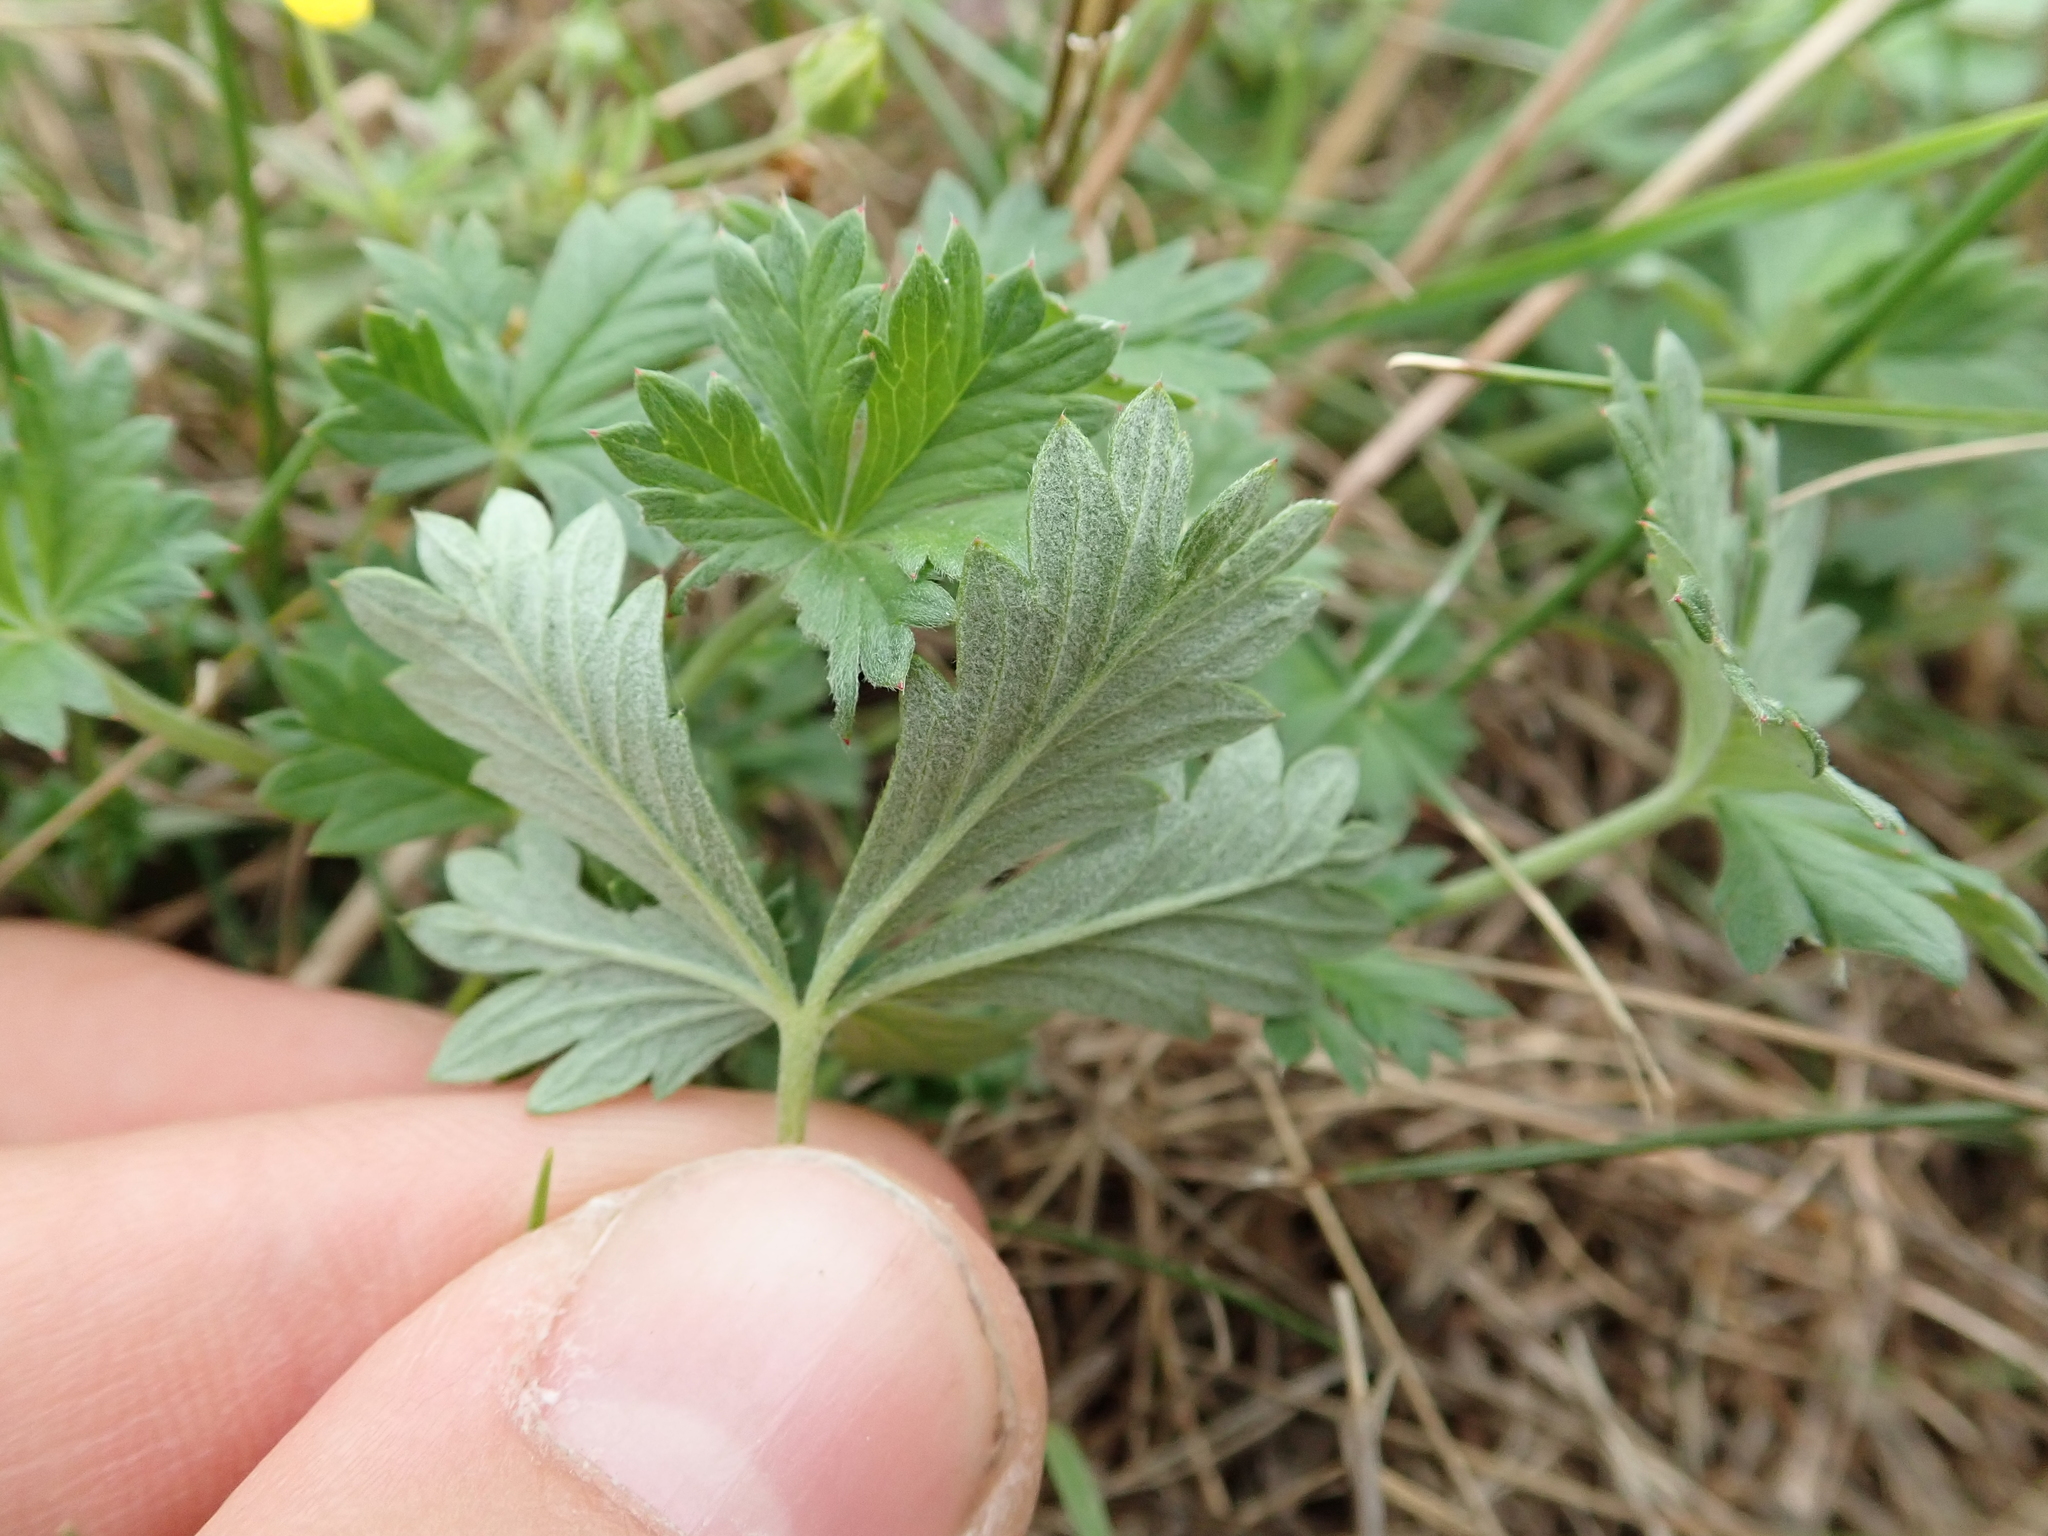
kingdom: Plantae
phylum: Tracheophyta
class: Magnoliopsida
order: Rosales
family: Rosaceae
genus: Potentilla
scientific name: Potentilla argentea
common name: Hoary cinquefoil
